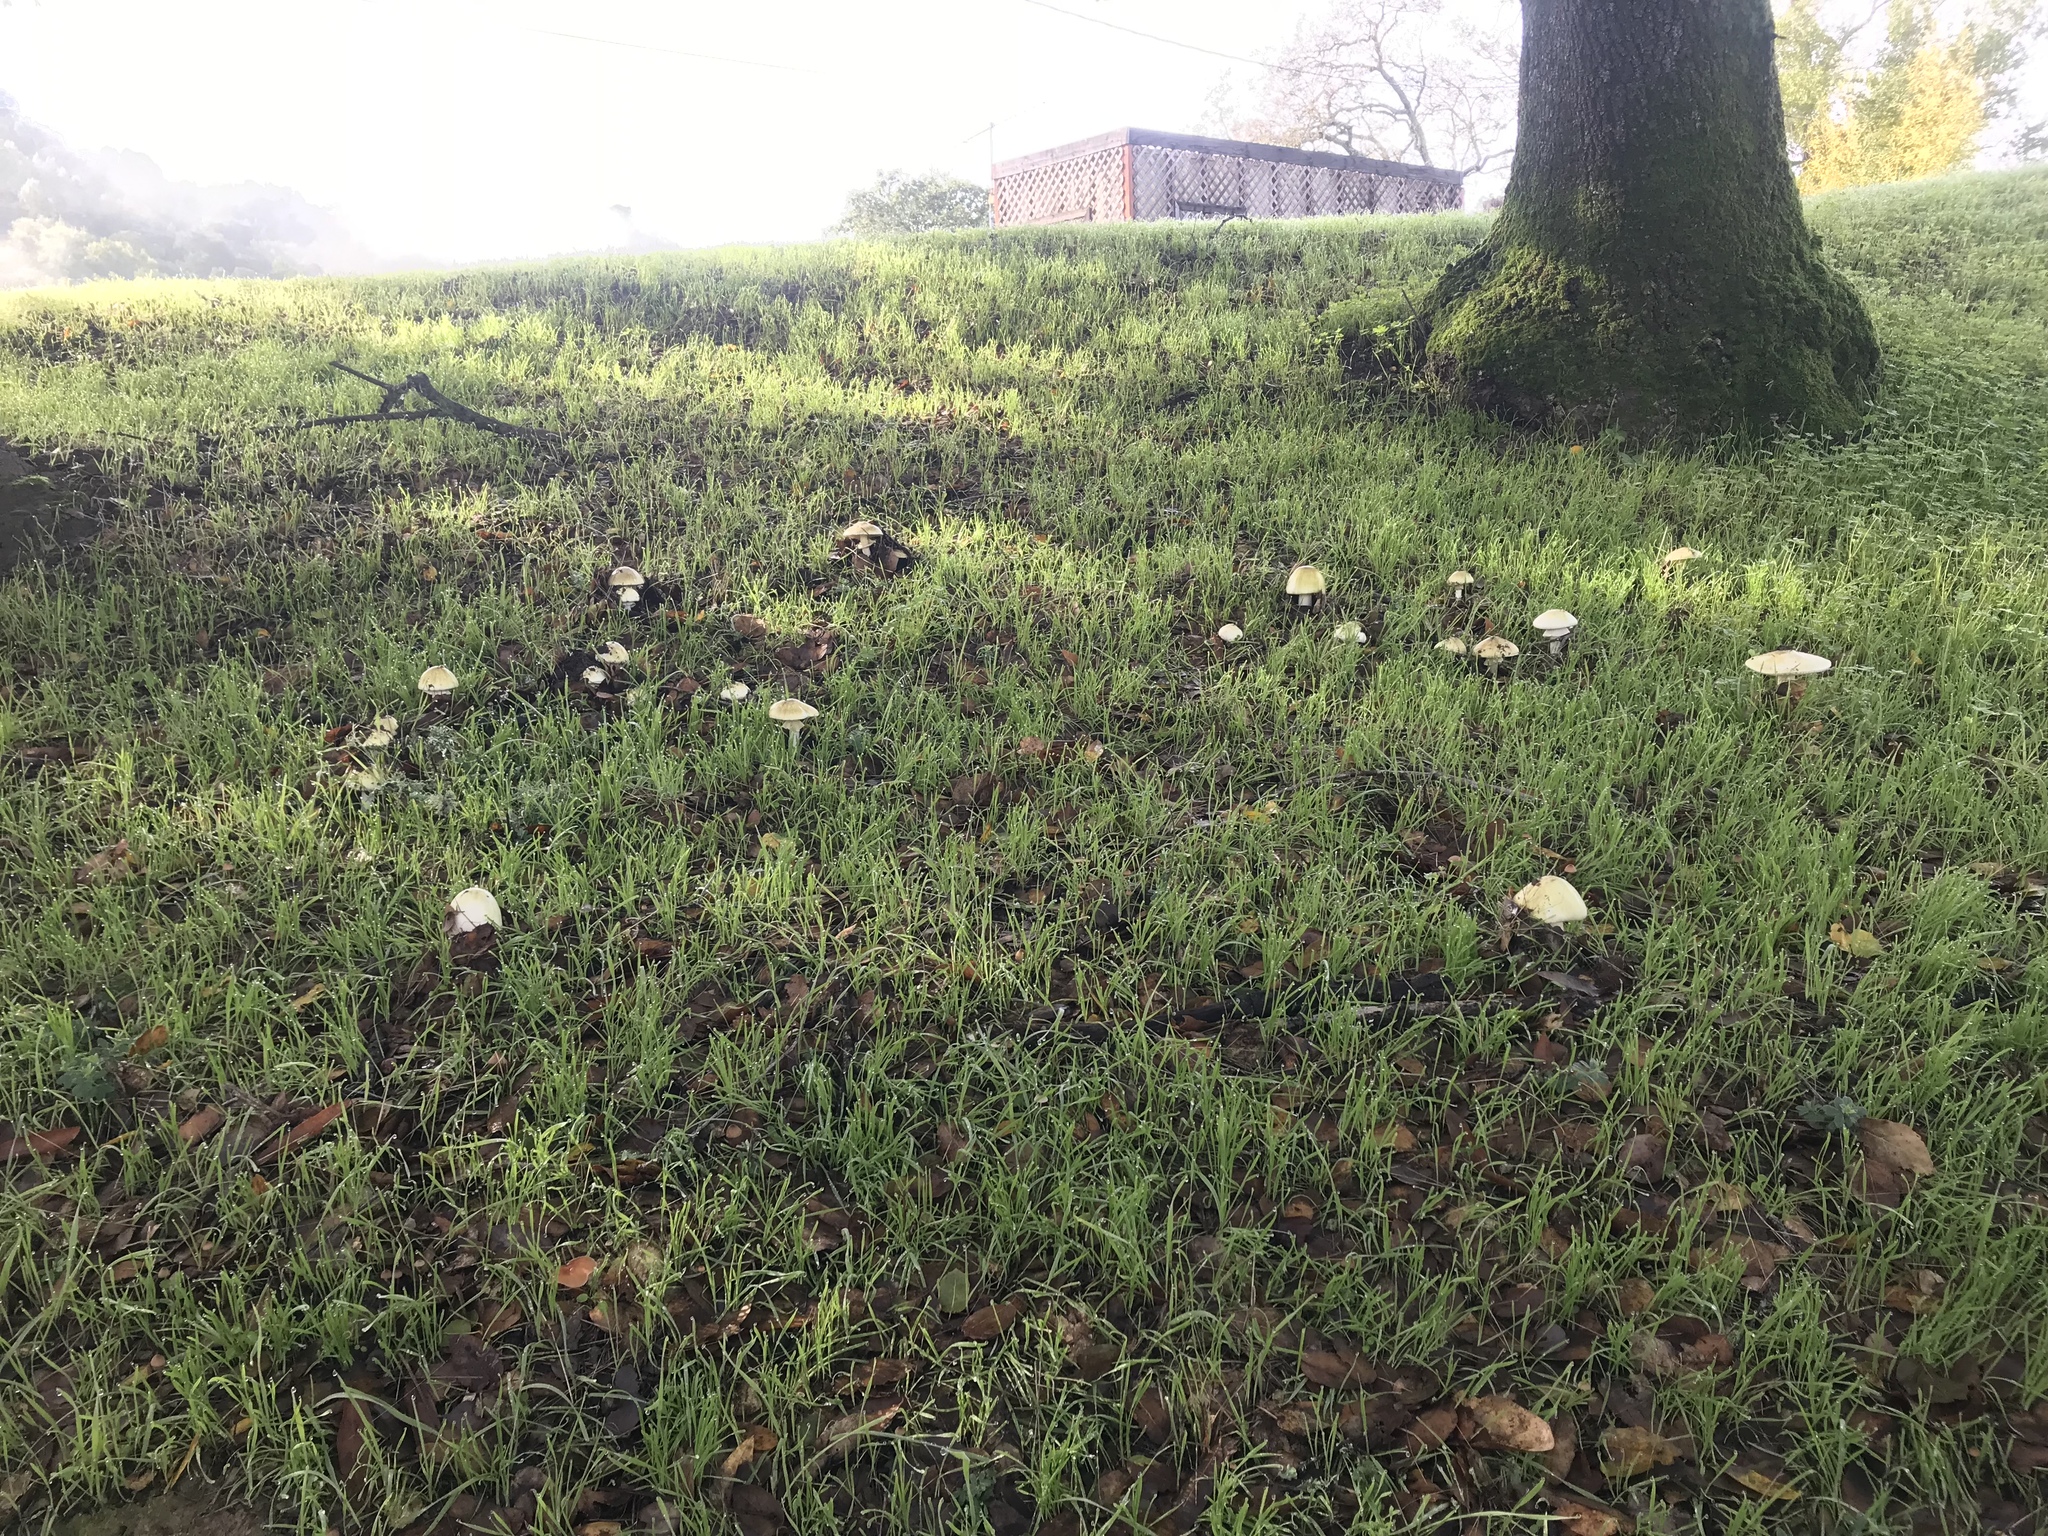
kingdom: Fungi
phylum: Basidiomycota
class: Agaricomycetes
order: Agaricales
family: Amanitaceae
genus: Amanita
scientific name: Amanita phalloides
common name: Death cap
